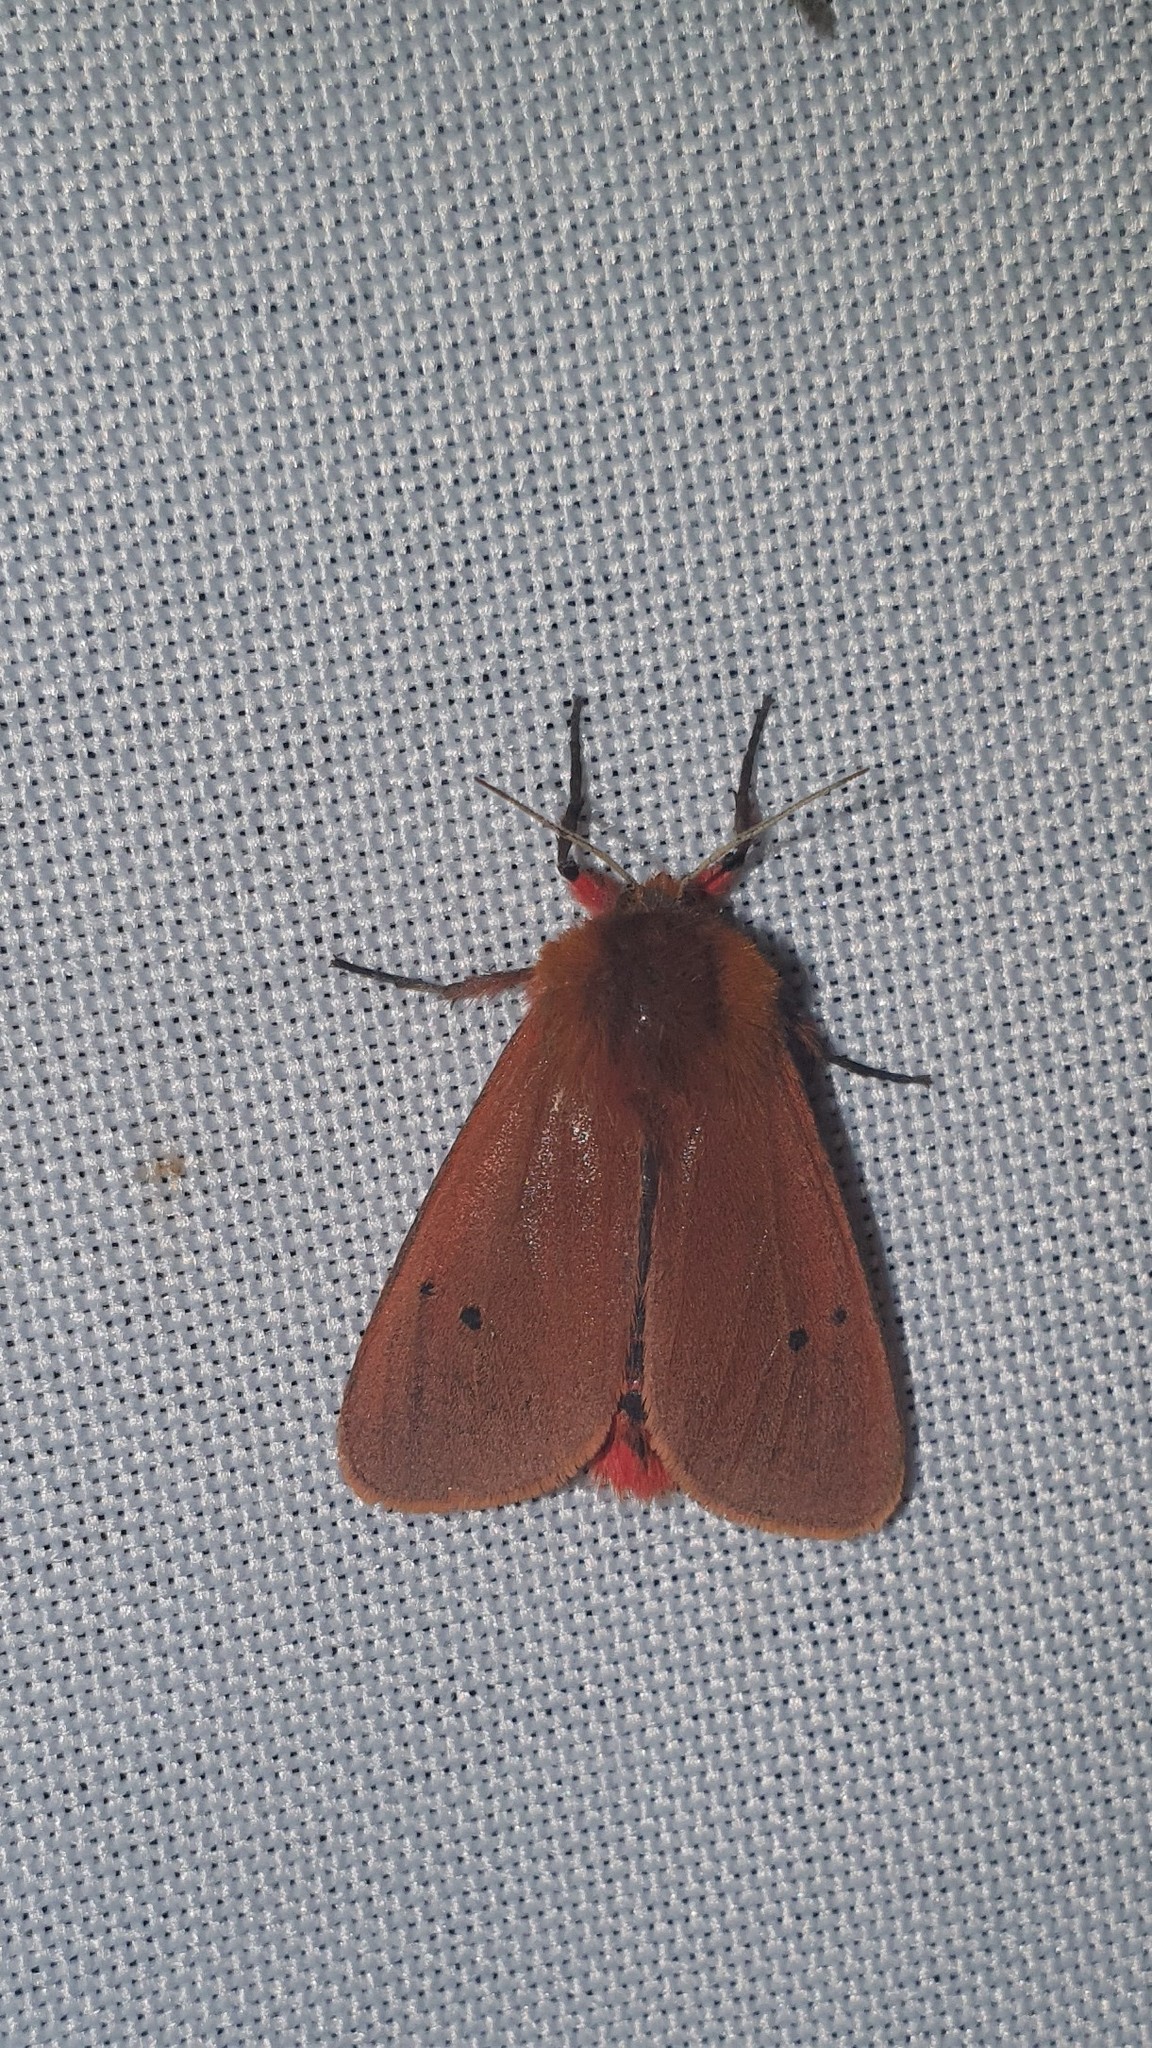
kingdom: Animalia
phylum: Arthropoda
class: Insecta
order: Lepidoptera
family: Erebidae
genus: Phragmatobia
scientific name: Phragmatobia fuliginosa
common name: Ruby tiger
